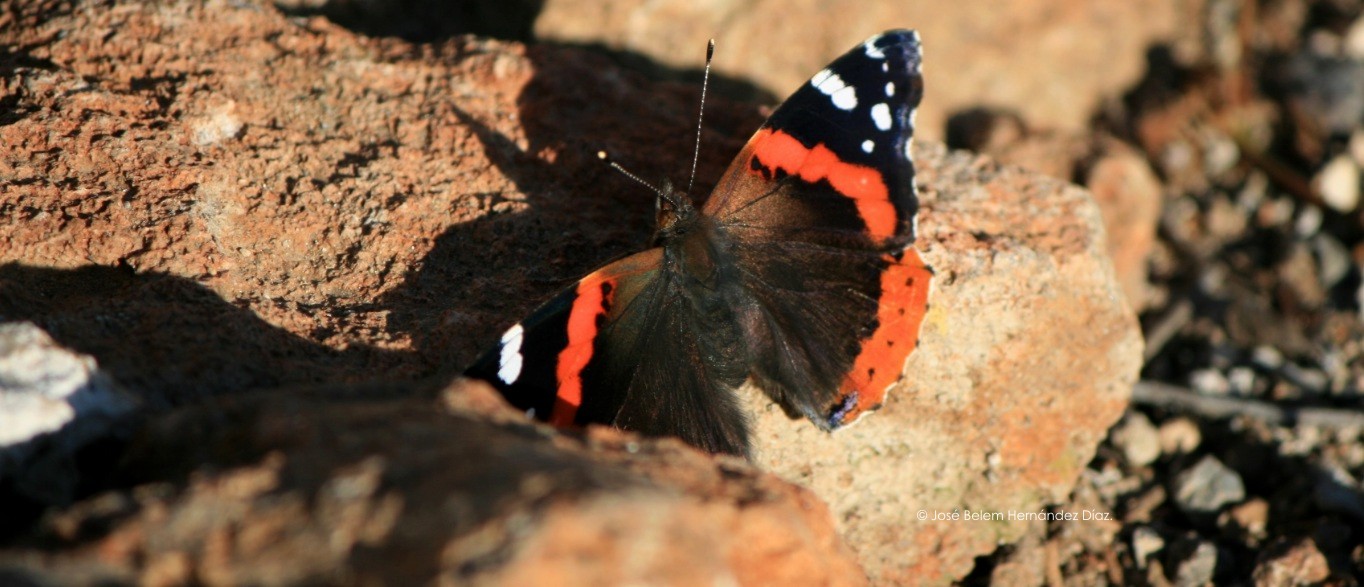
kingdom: Animalia
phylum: Arthropoda
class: Insecta
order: Lepidoptera
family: Nymphalidae
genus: Vanessa
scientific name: Vanessa atalanta
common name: Red admiral
